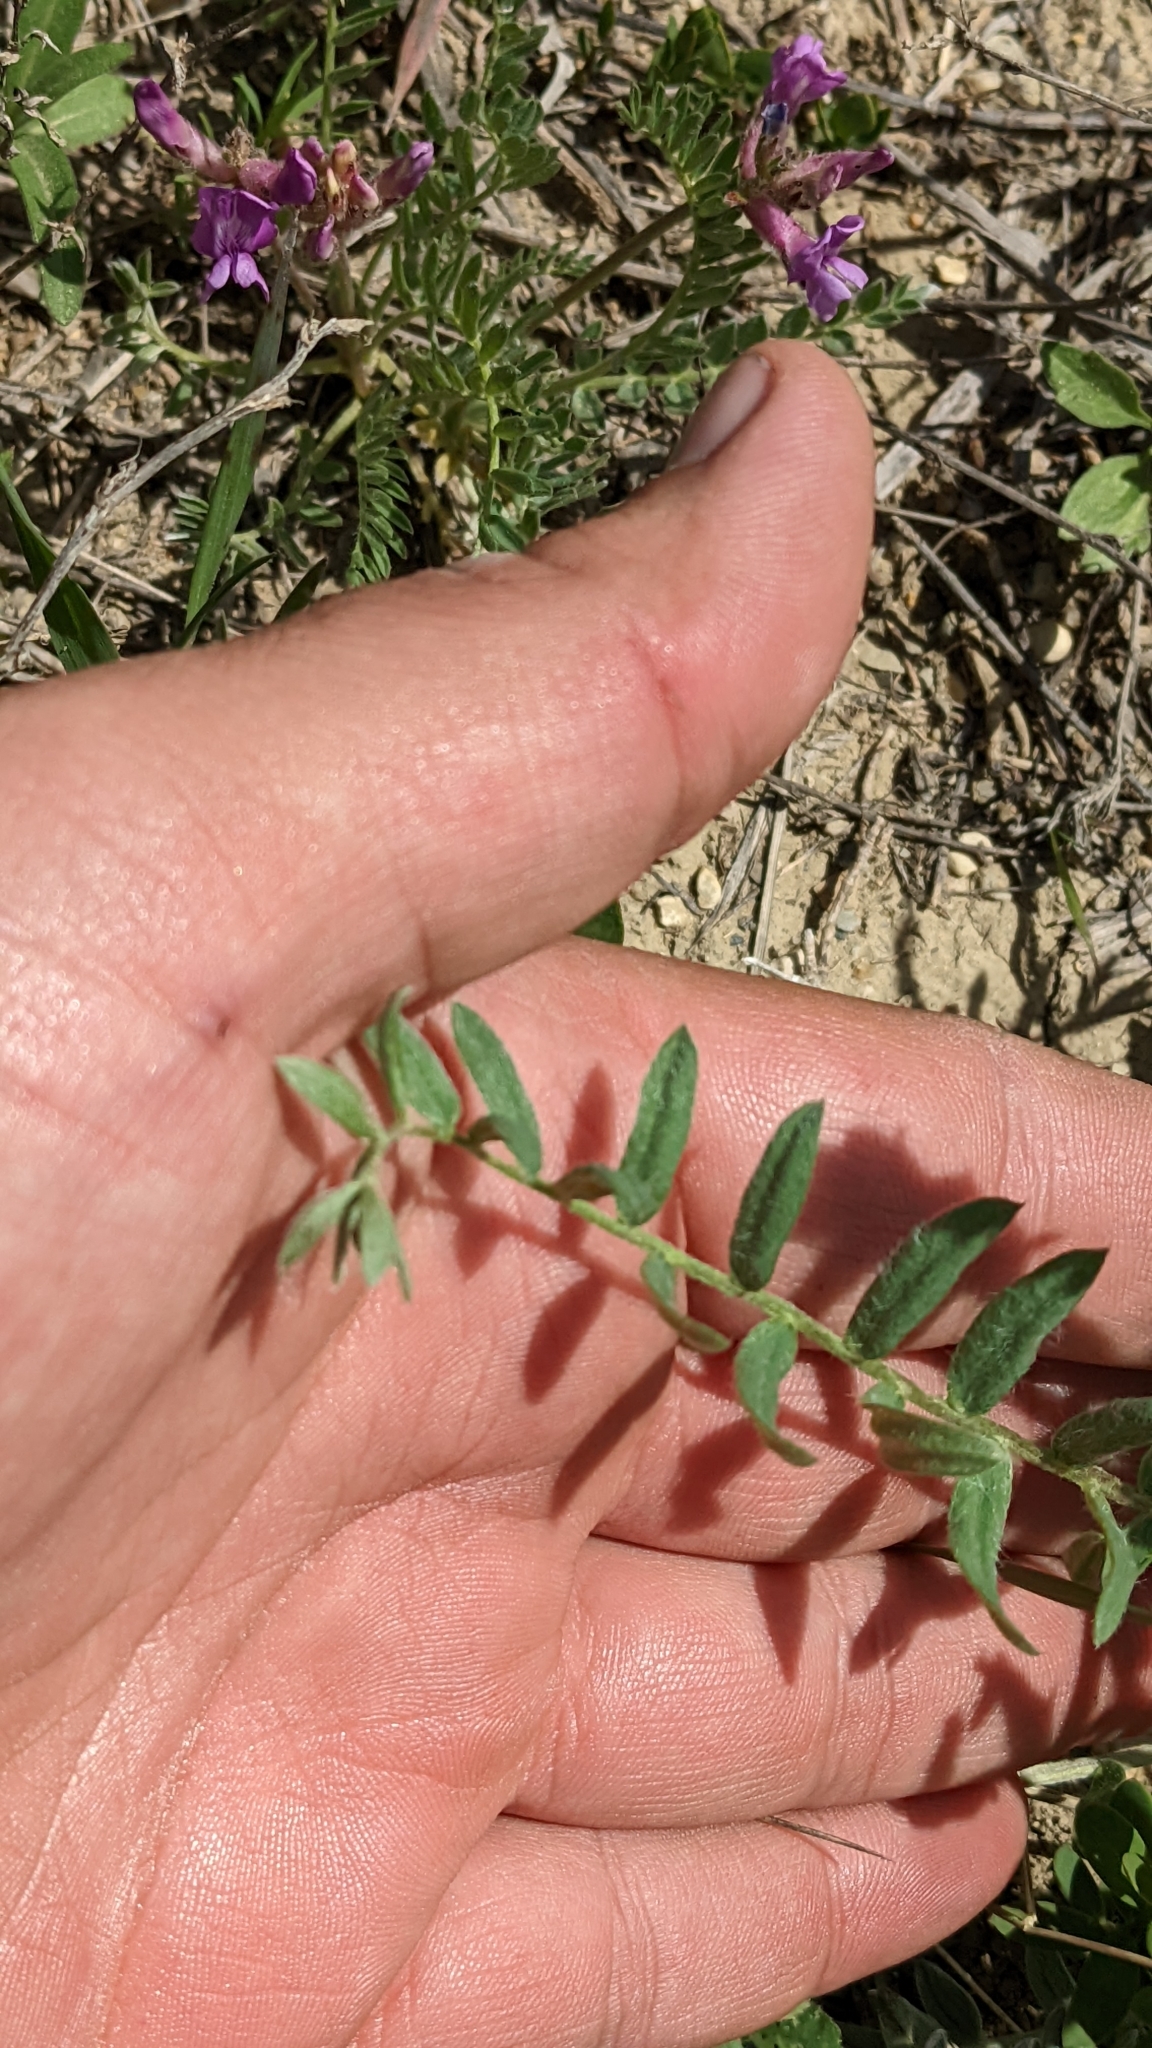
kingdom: Plantae
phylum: Tracheophyta
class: Magnoliopsida
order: Fabales
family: Fabaceae
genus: Oxytropis
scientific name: Oxytropis lambertii
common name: Purple locoweed
